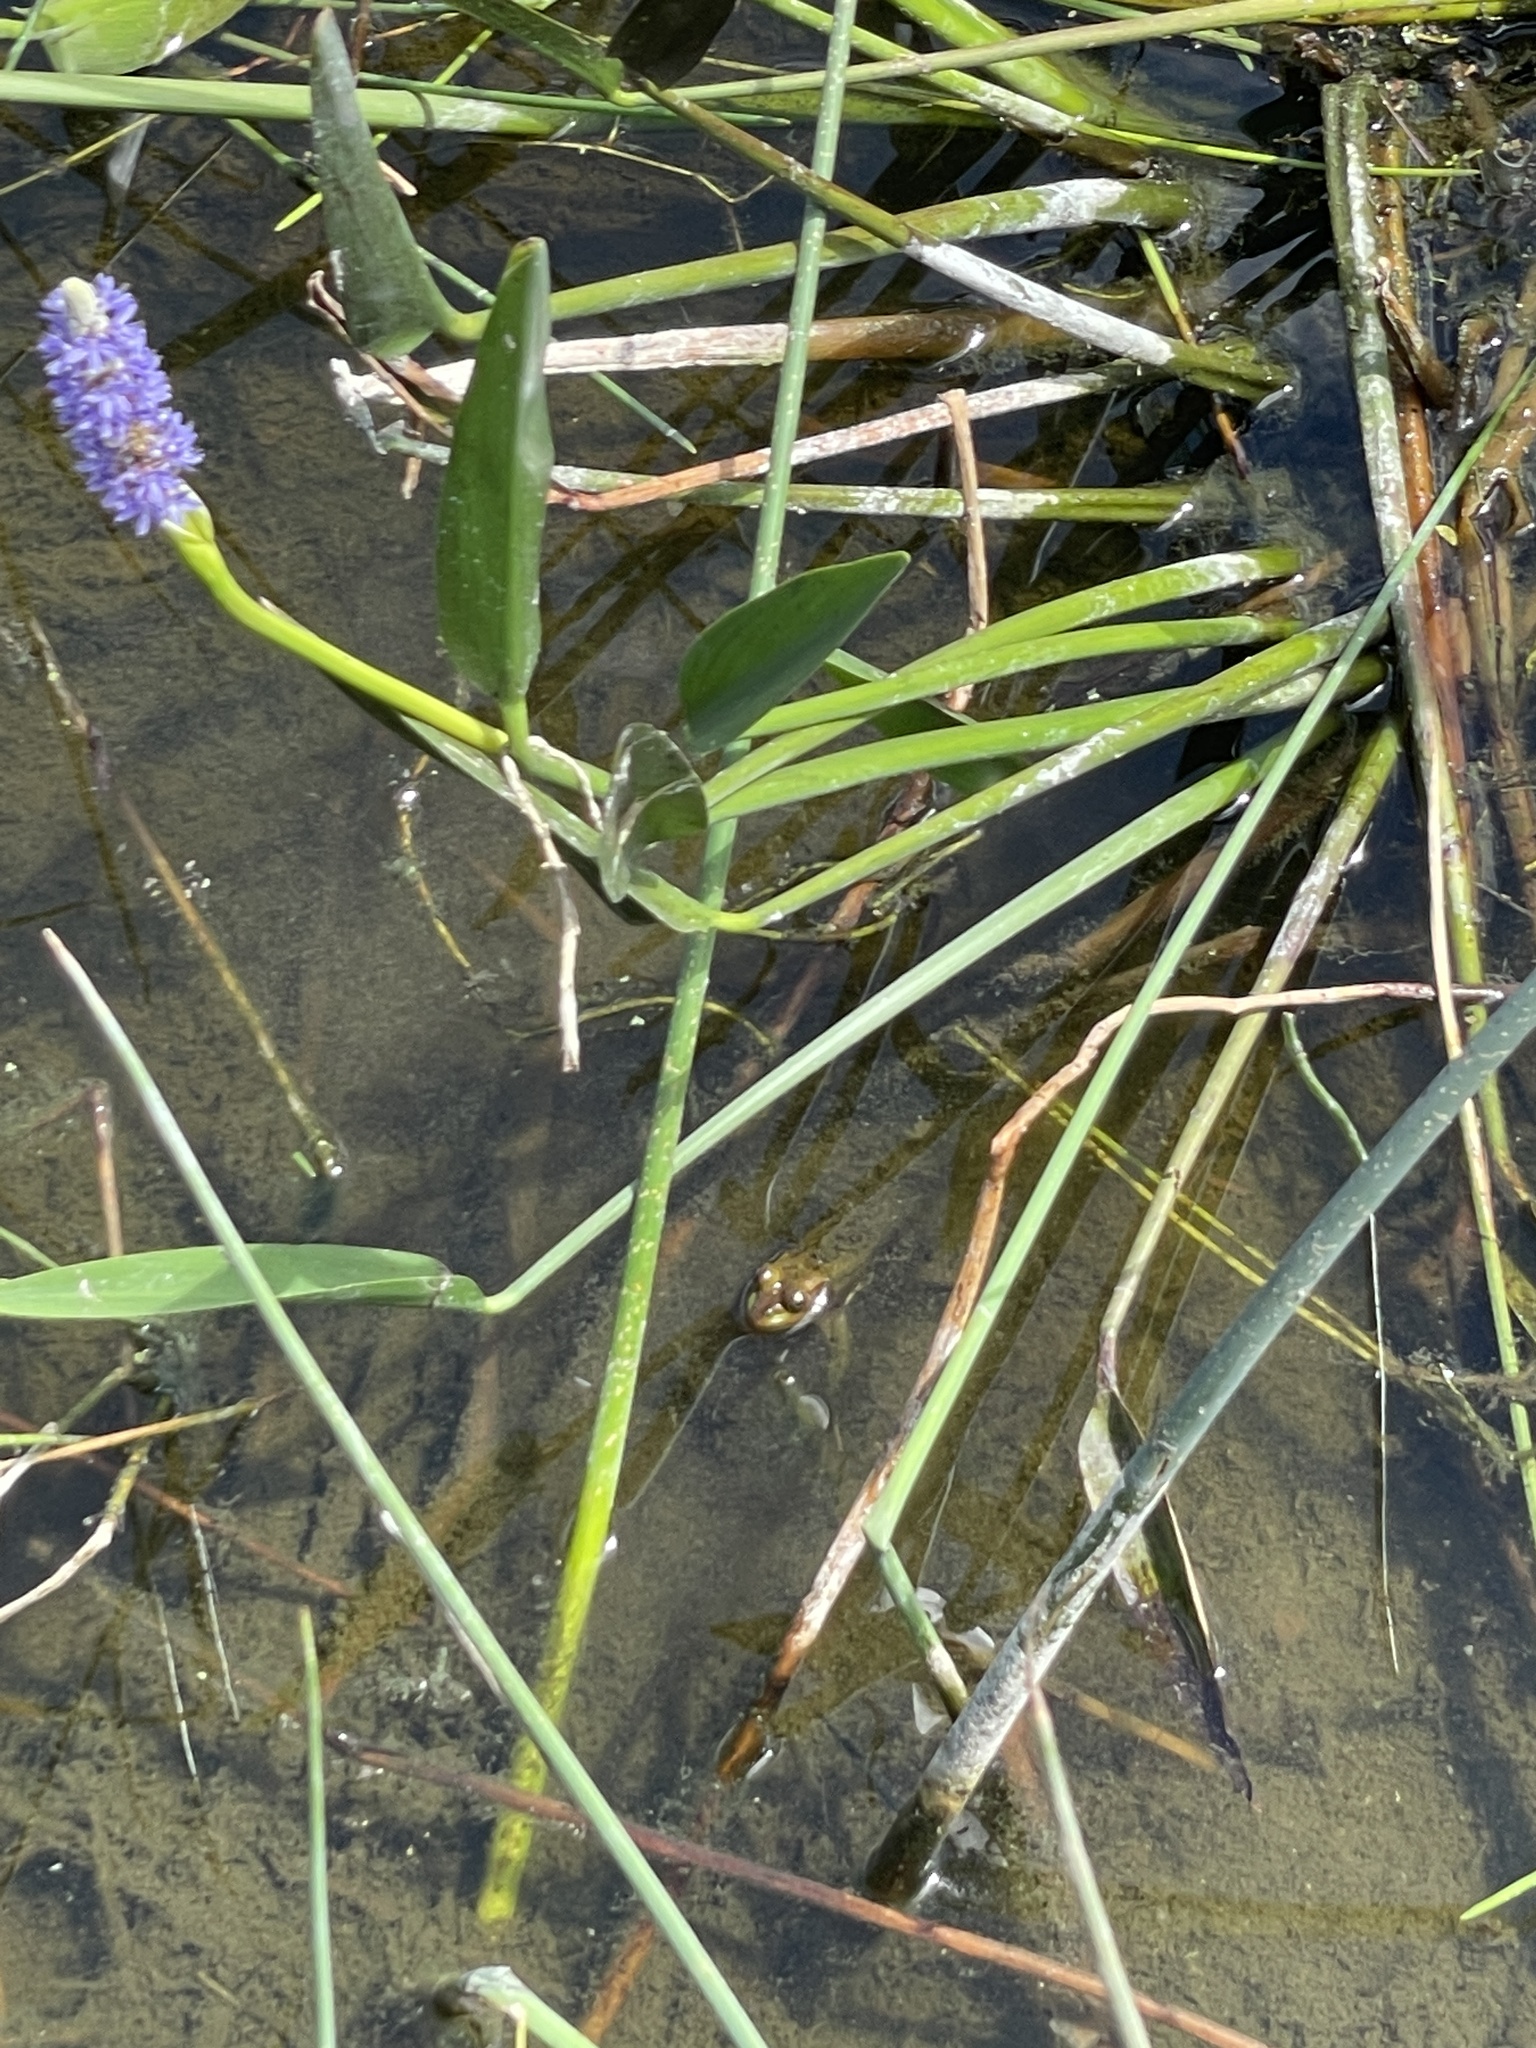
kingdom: Animalia
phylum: Chordata
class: Amphibia
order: Anura
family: Ranidae
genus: Lithobates
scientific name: Lithobates grylio
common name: Pig frog
